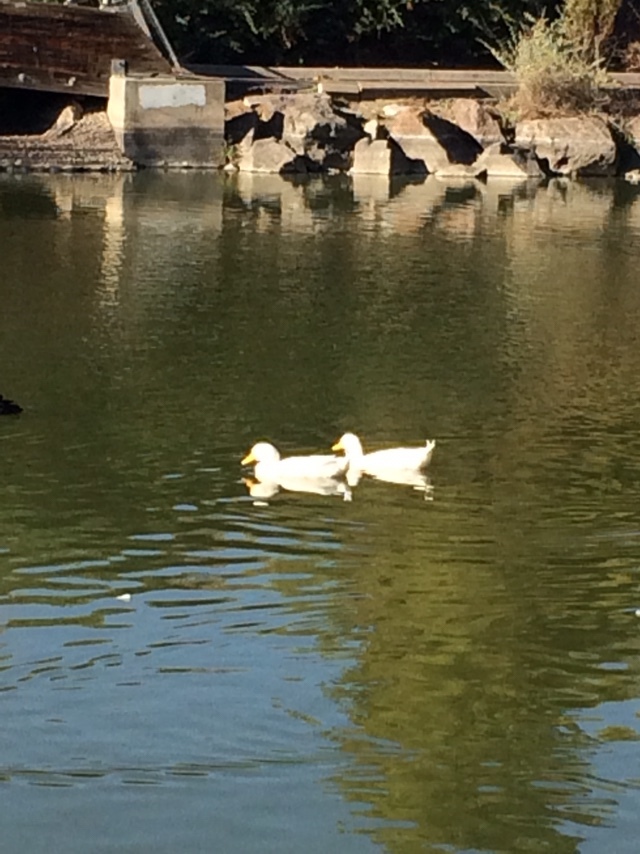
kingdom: Animalia
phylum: Chordata
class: Aves
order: Anseriformes
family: Anatidae
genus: Anas
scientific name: Anas platyrhynchos
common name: Mallard
